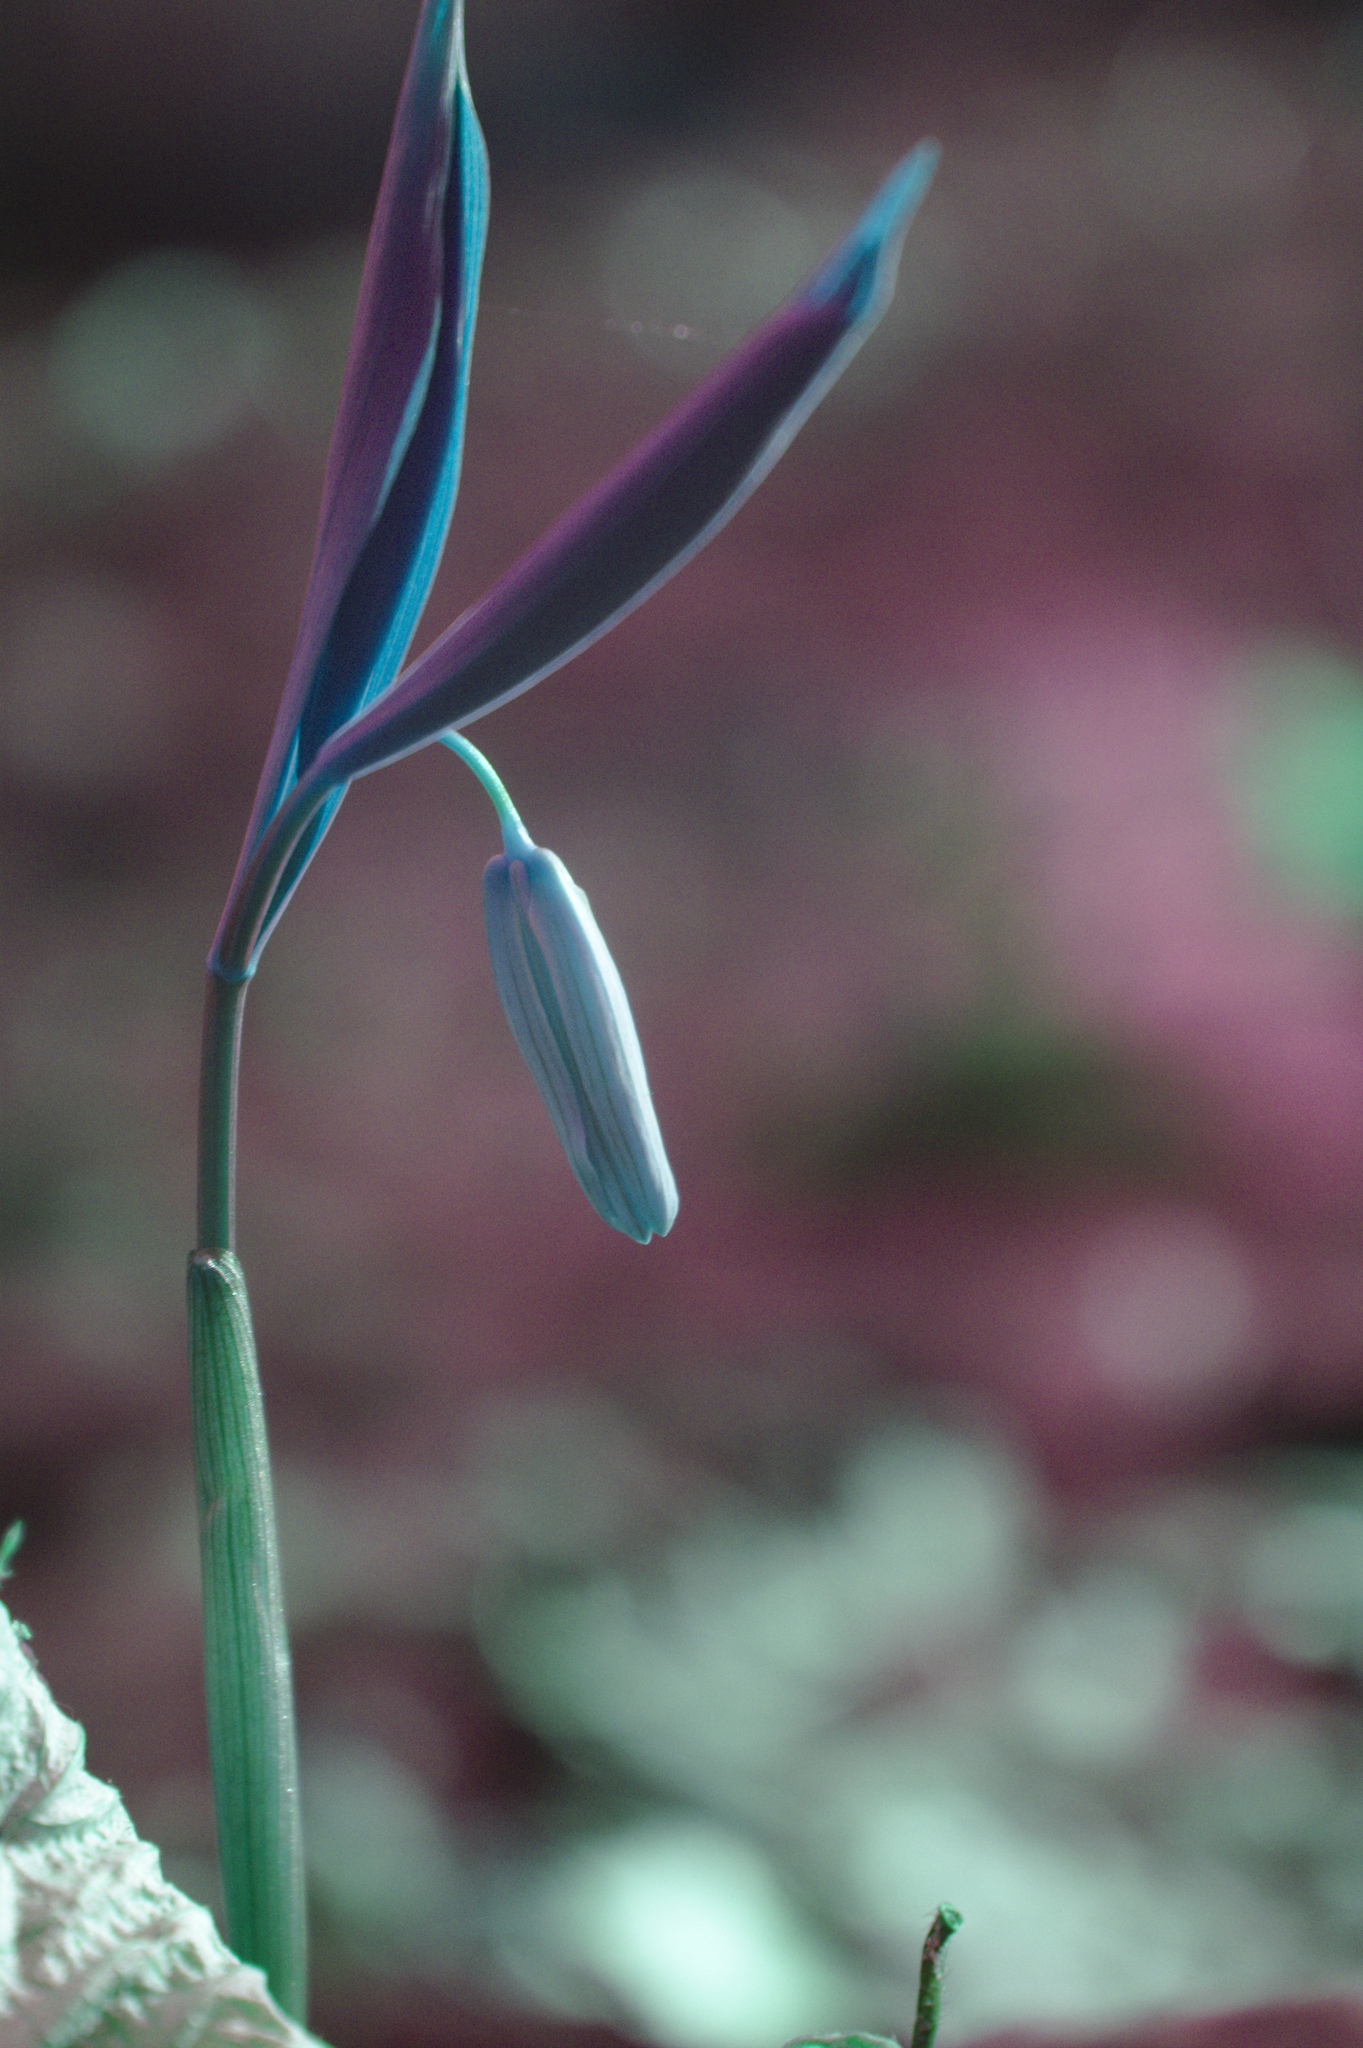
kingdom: Plantae
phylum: Tracheophyta
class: Liliopsida
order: Liliales
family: Colchicaceae
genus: Uvularia
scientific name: Uvularia sessilifolia
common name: Straw-lily
